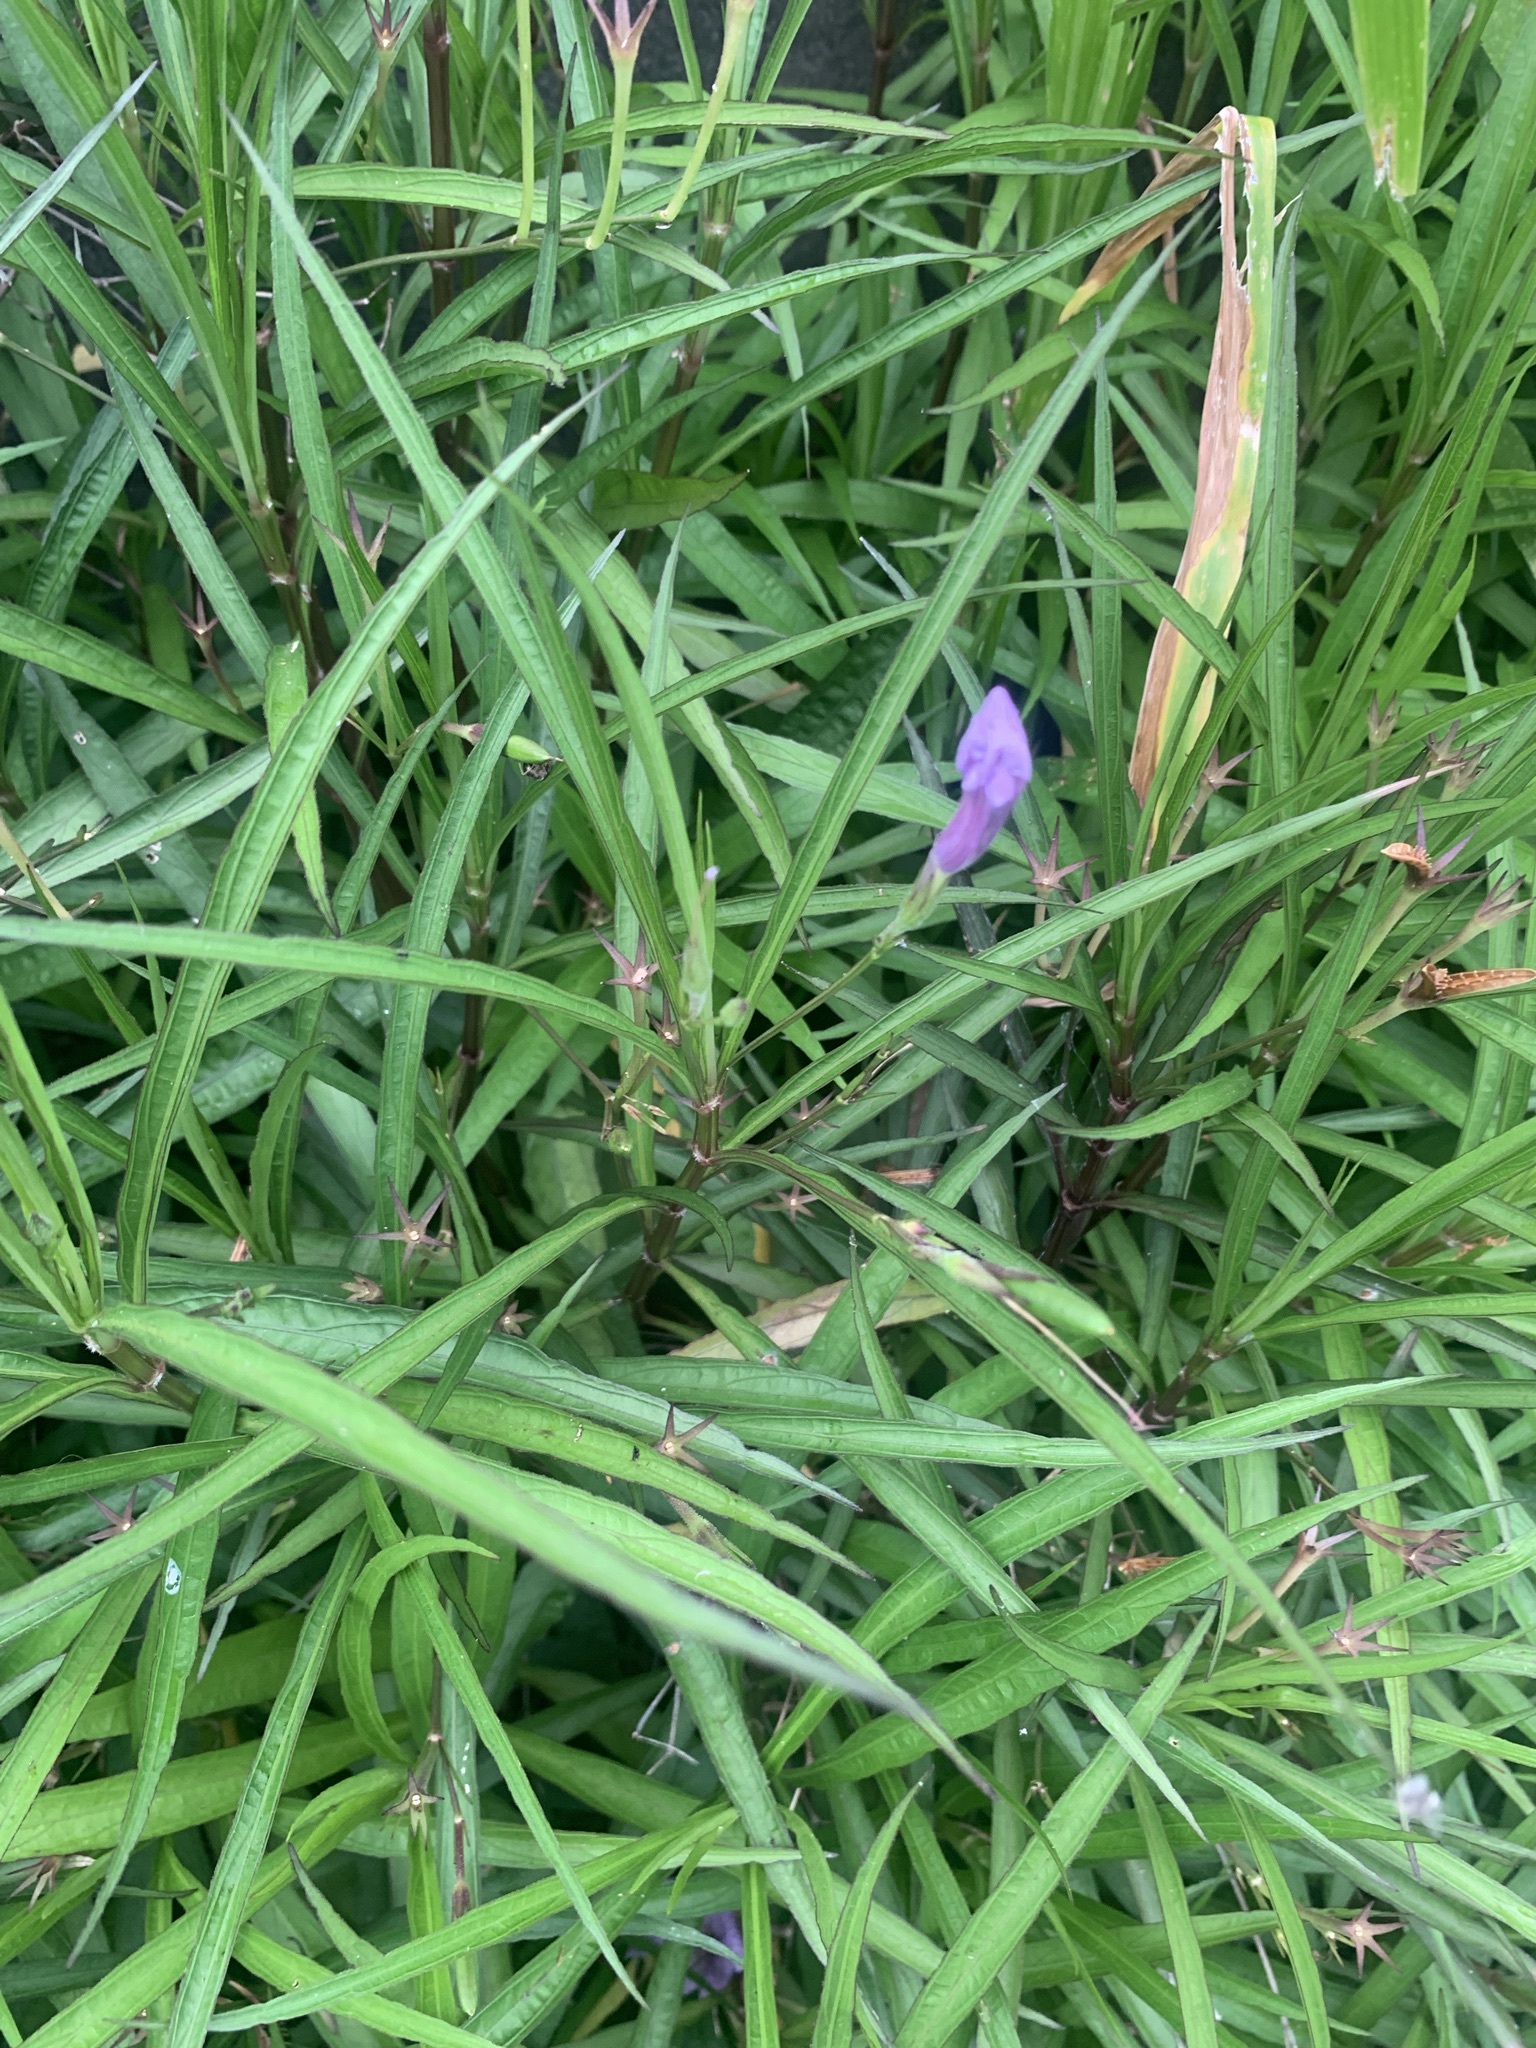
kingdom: Plantae
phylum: Tracheophyta
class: Magnoliopsida
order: Lamiales
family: Acanthaceae
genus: Ruellia
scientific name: Ruellia simplex
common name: Softseed wild petunia
